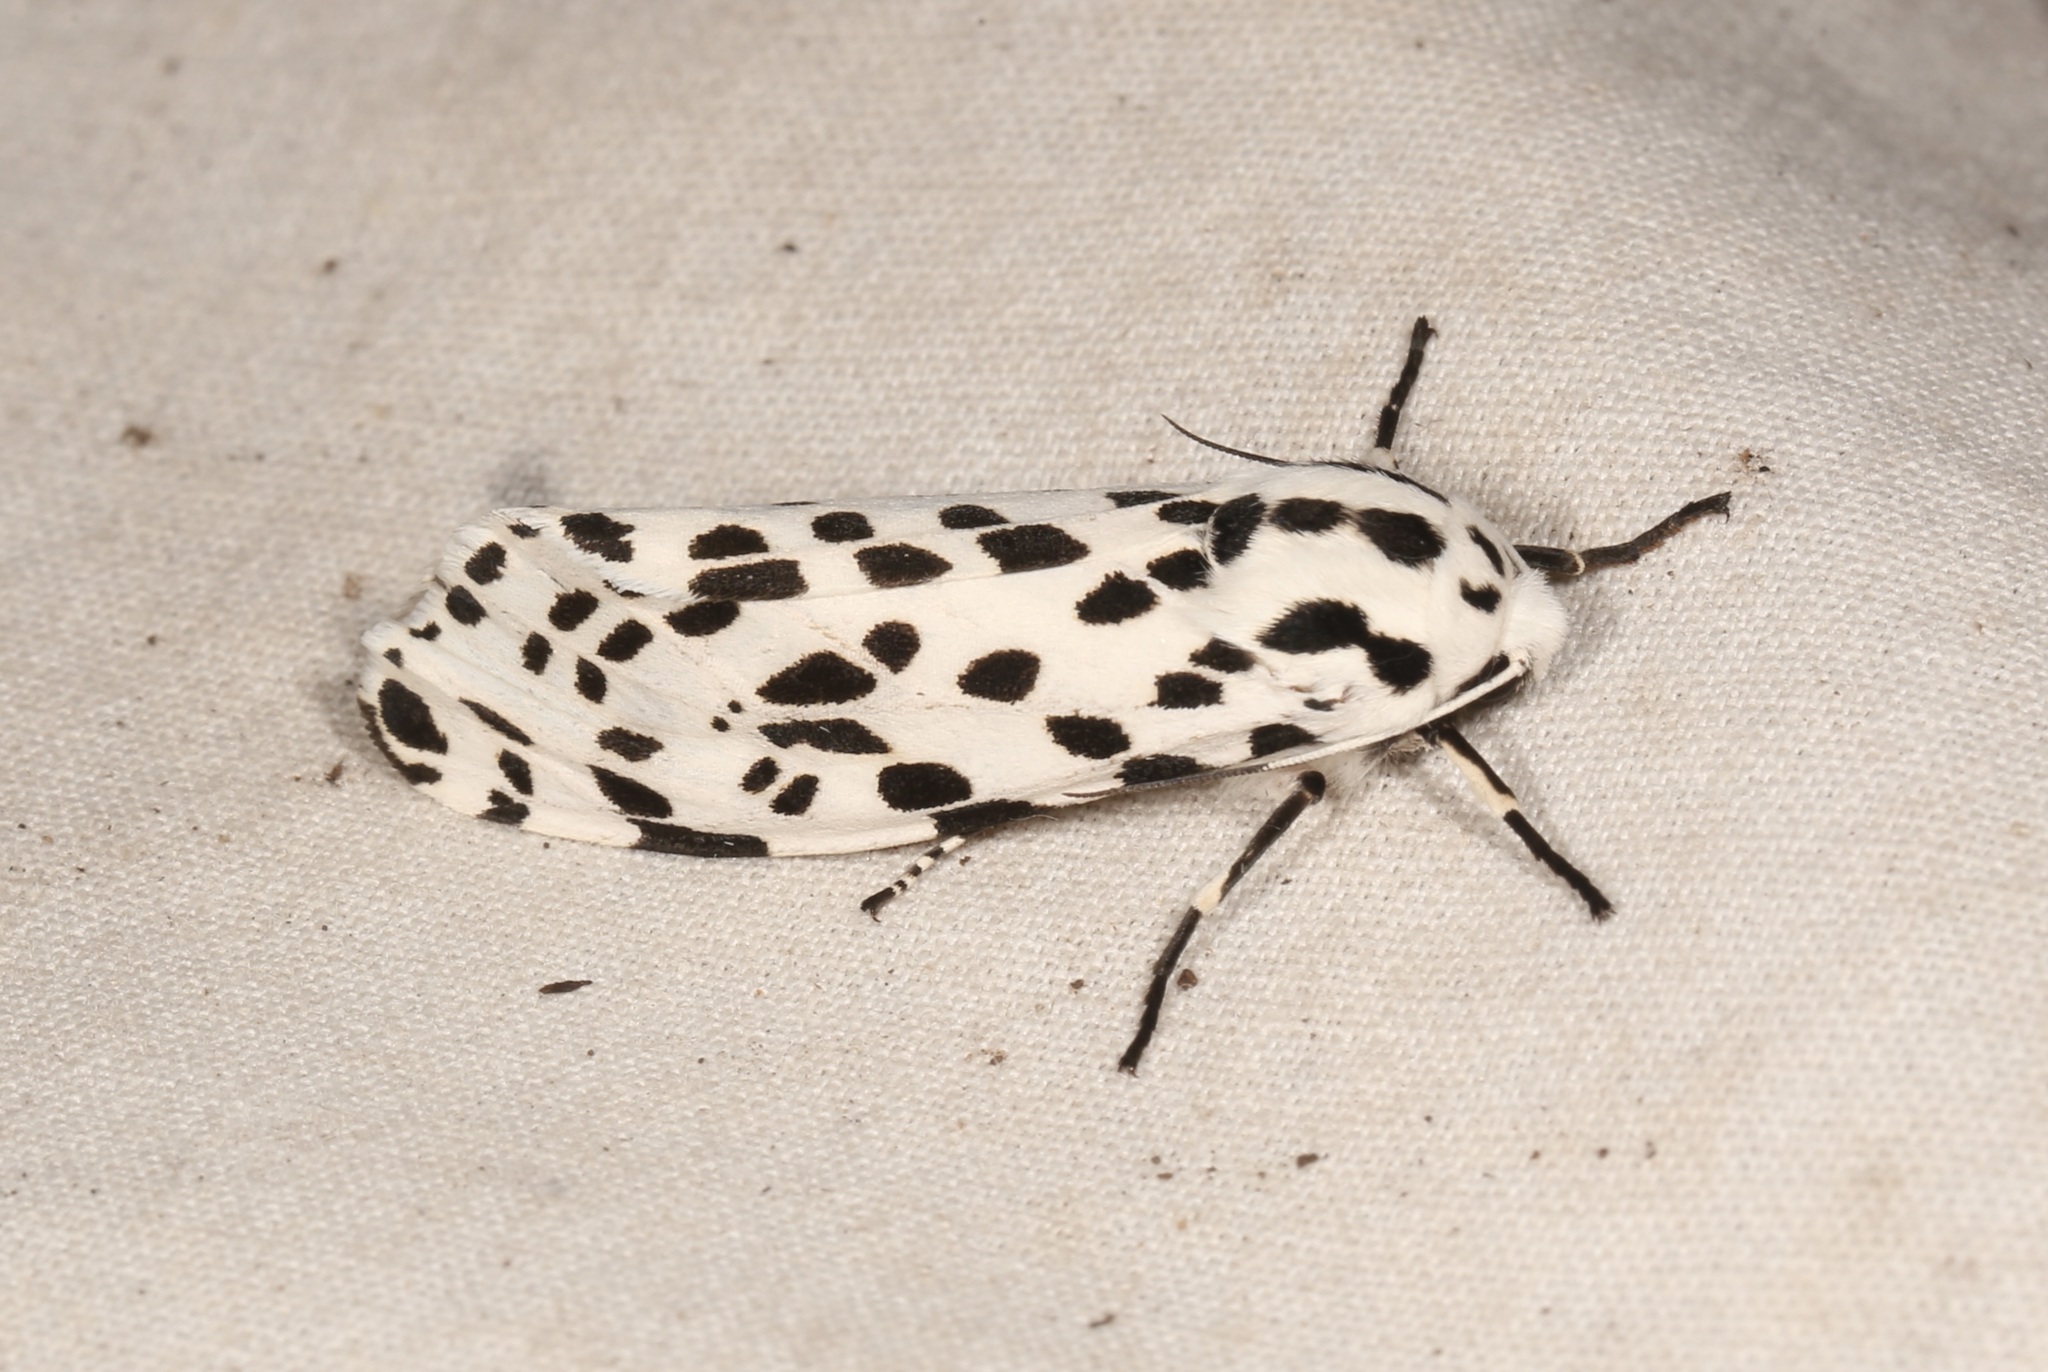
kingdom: Animalia
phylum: Arthropoda
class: Insecta
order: Lepidoptera
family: Erebidae
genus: Hypercompe
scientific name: Hypercompe permaculata
